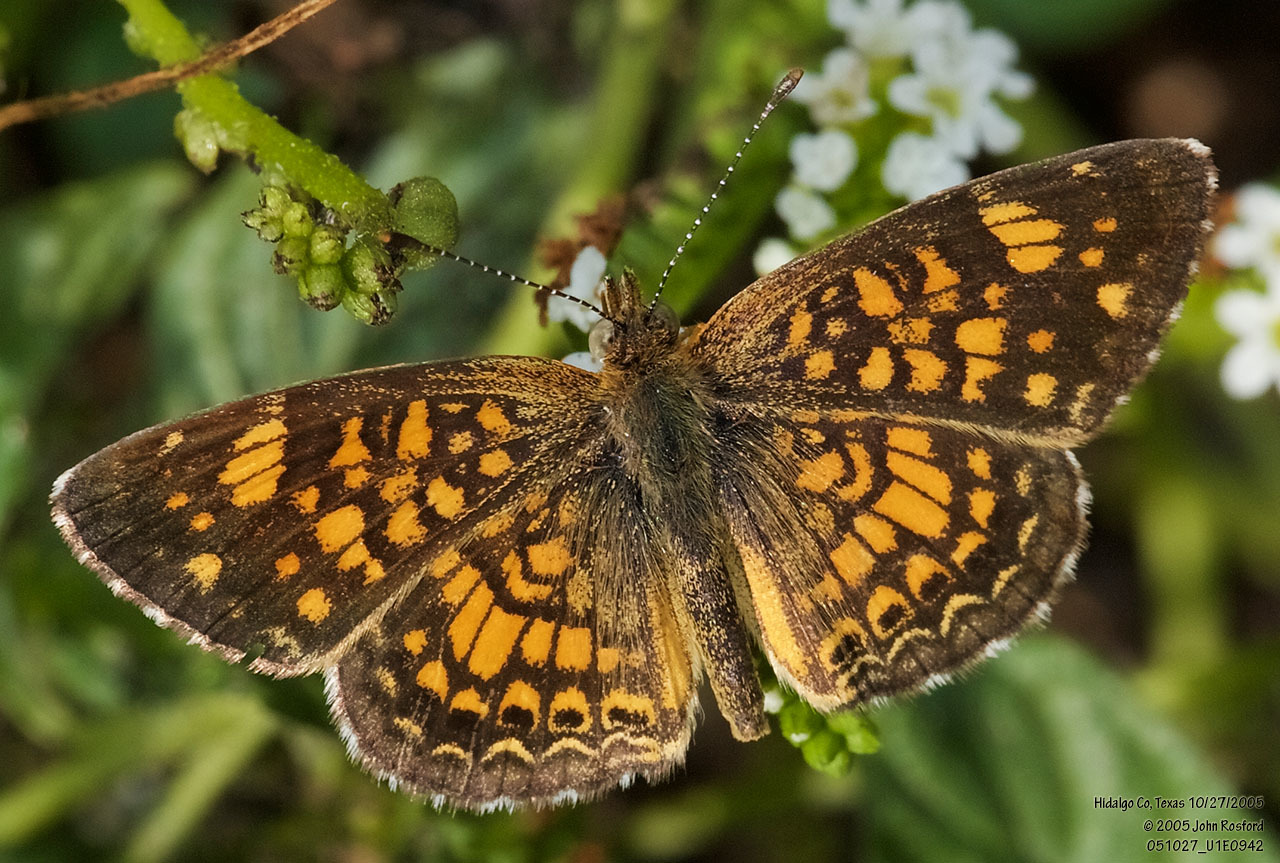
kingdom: Animalia
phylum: Arthropoda
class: Insecta
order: Lepidoptera
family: Nymphalidae
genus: Phyciodes
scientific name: Phyciodes vesta
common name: Vesta crescent
